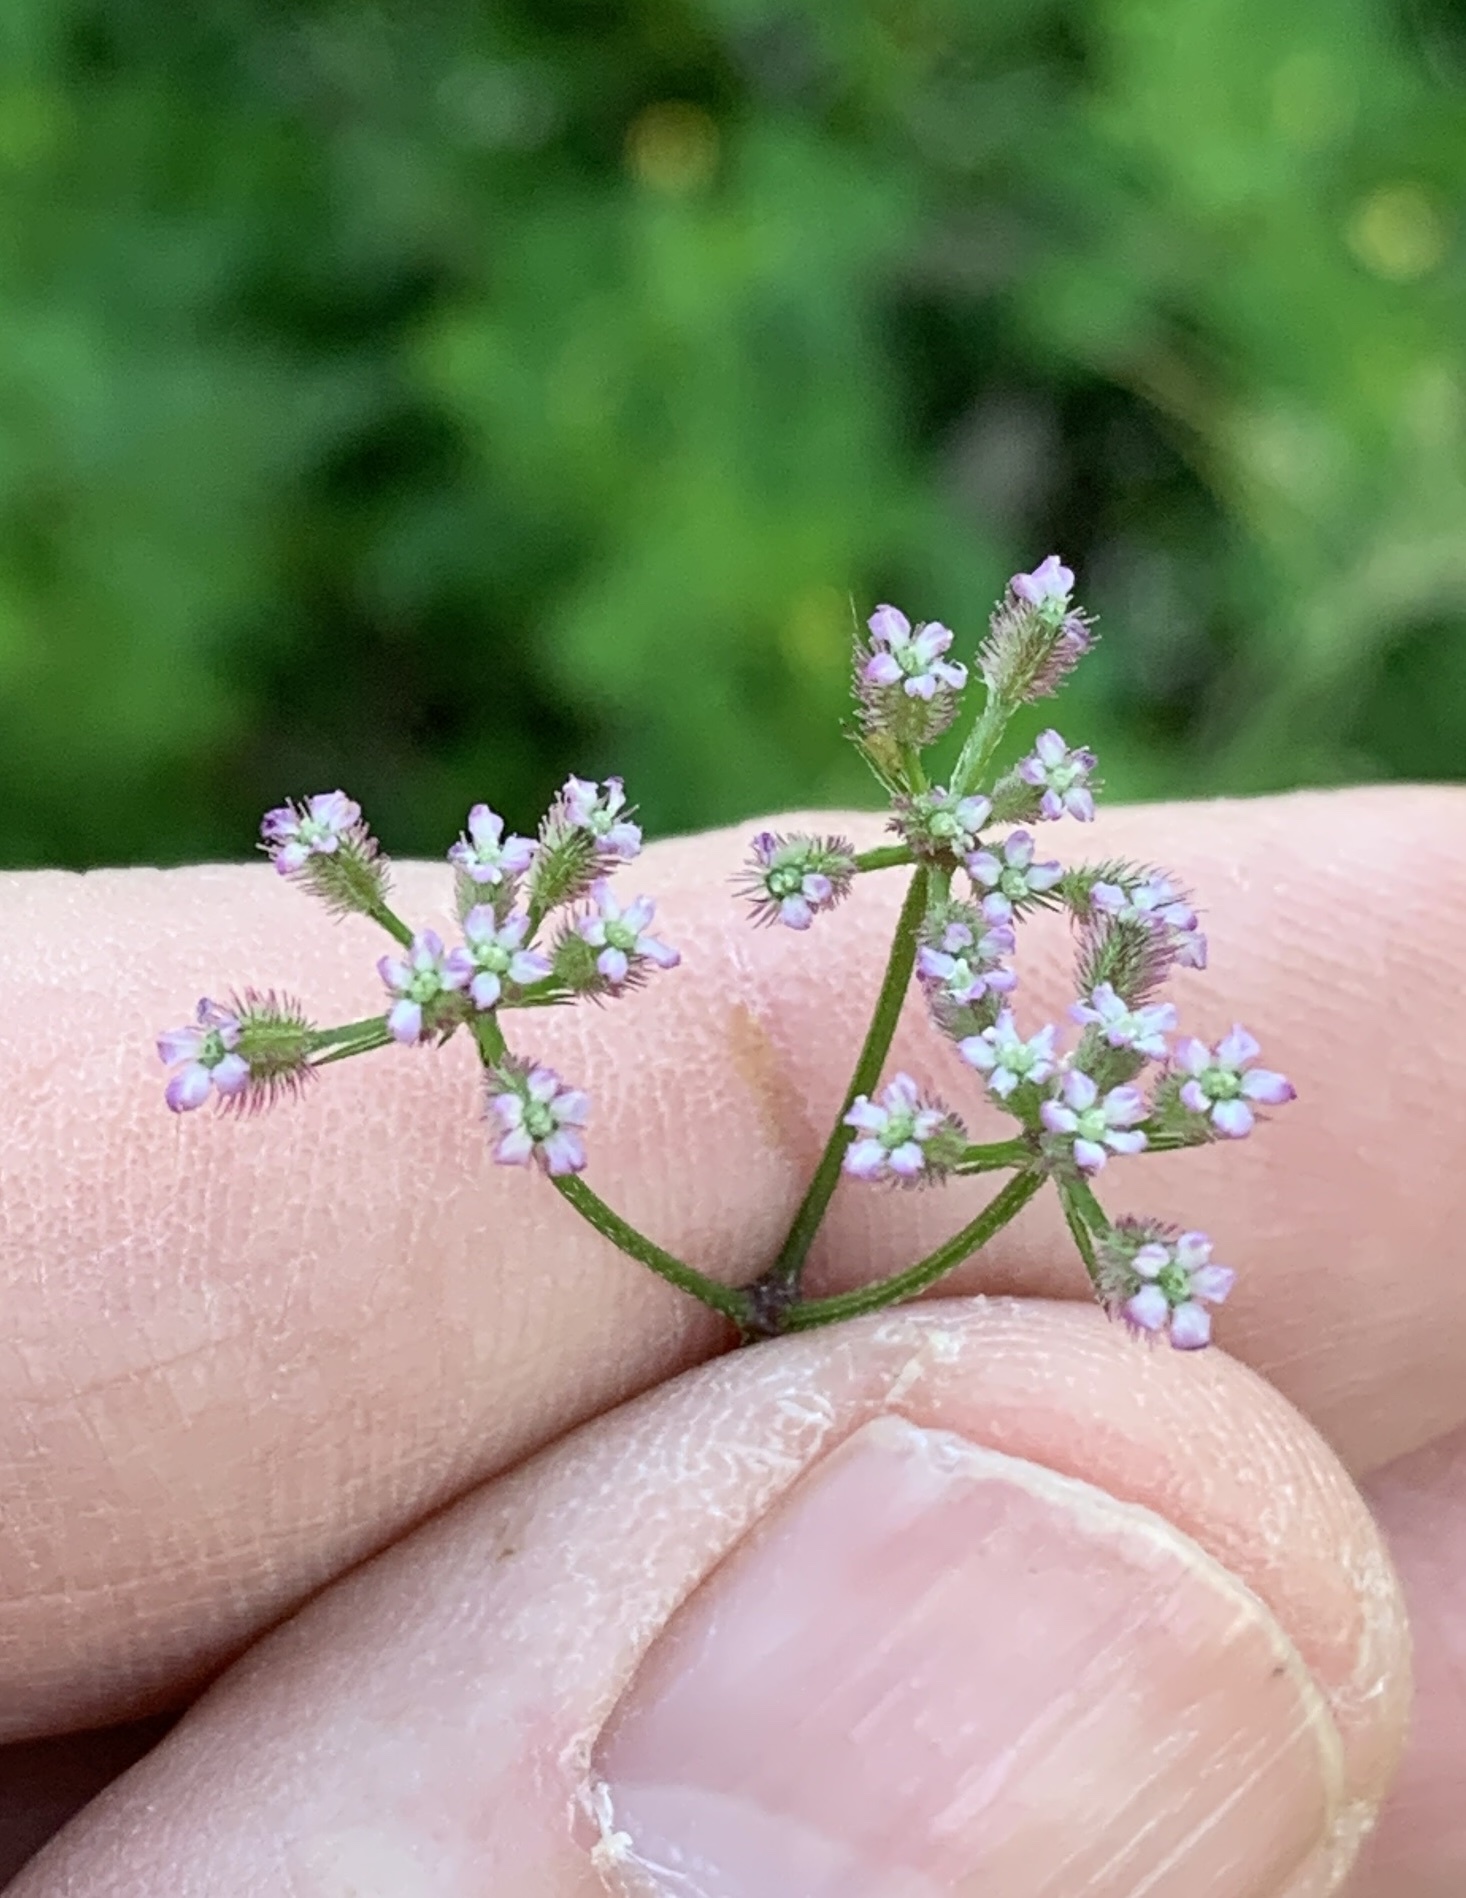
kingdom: Plantae
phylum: Tracheophyta
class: Magnoliopsida
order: Apiales
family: Apiaceae
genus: Torilis
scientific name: Torilis africana
